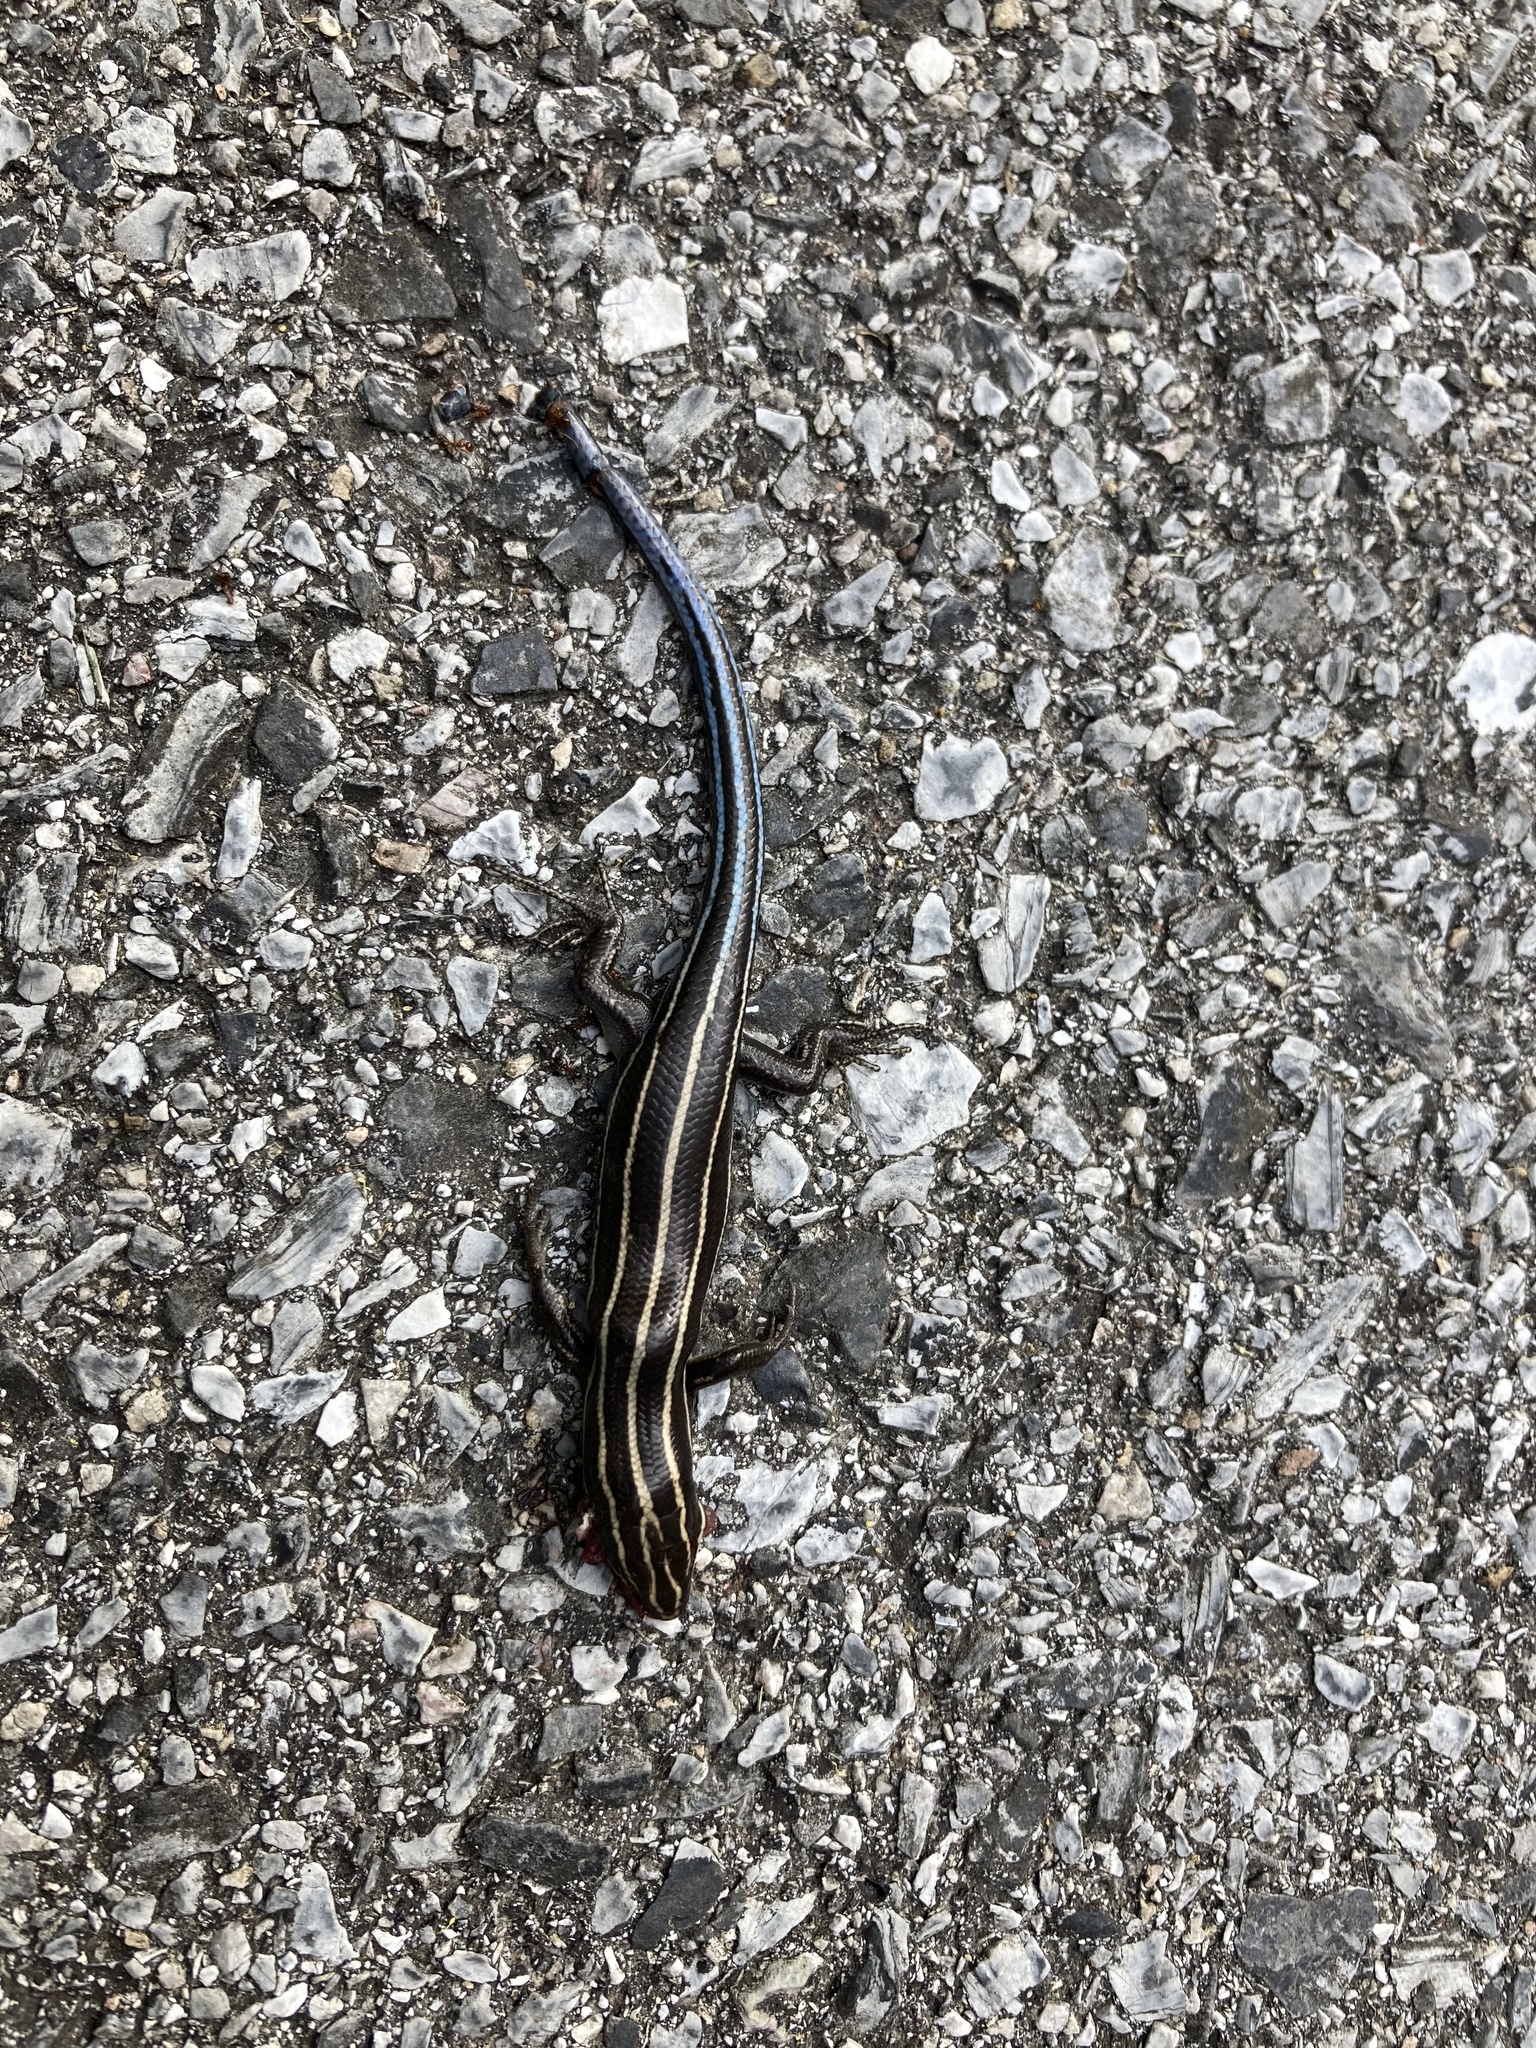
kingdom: Animalia
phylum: Chordata
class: Squamata
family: Scincidae
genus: Plestiodon
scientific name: Plestiodon fasciatus
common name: Five-lined skink
